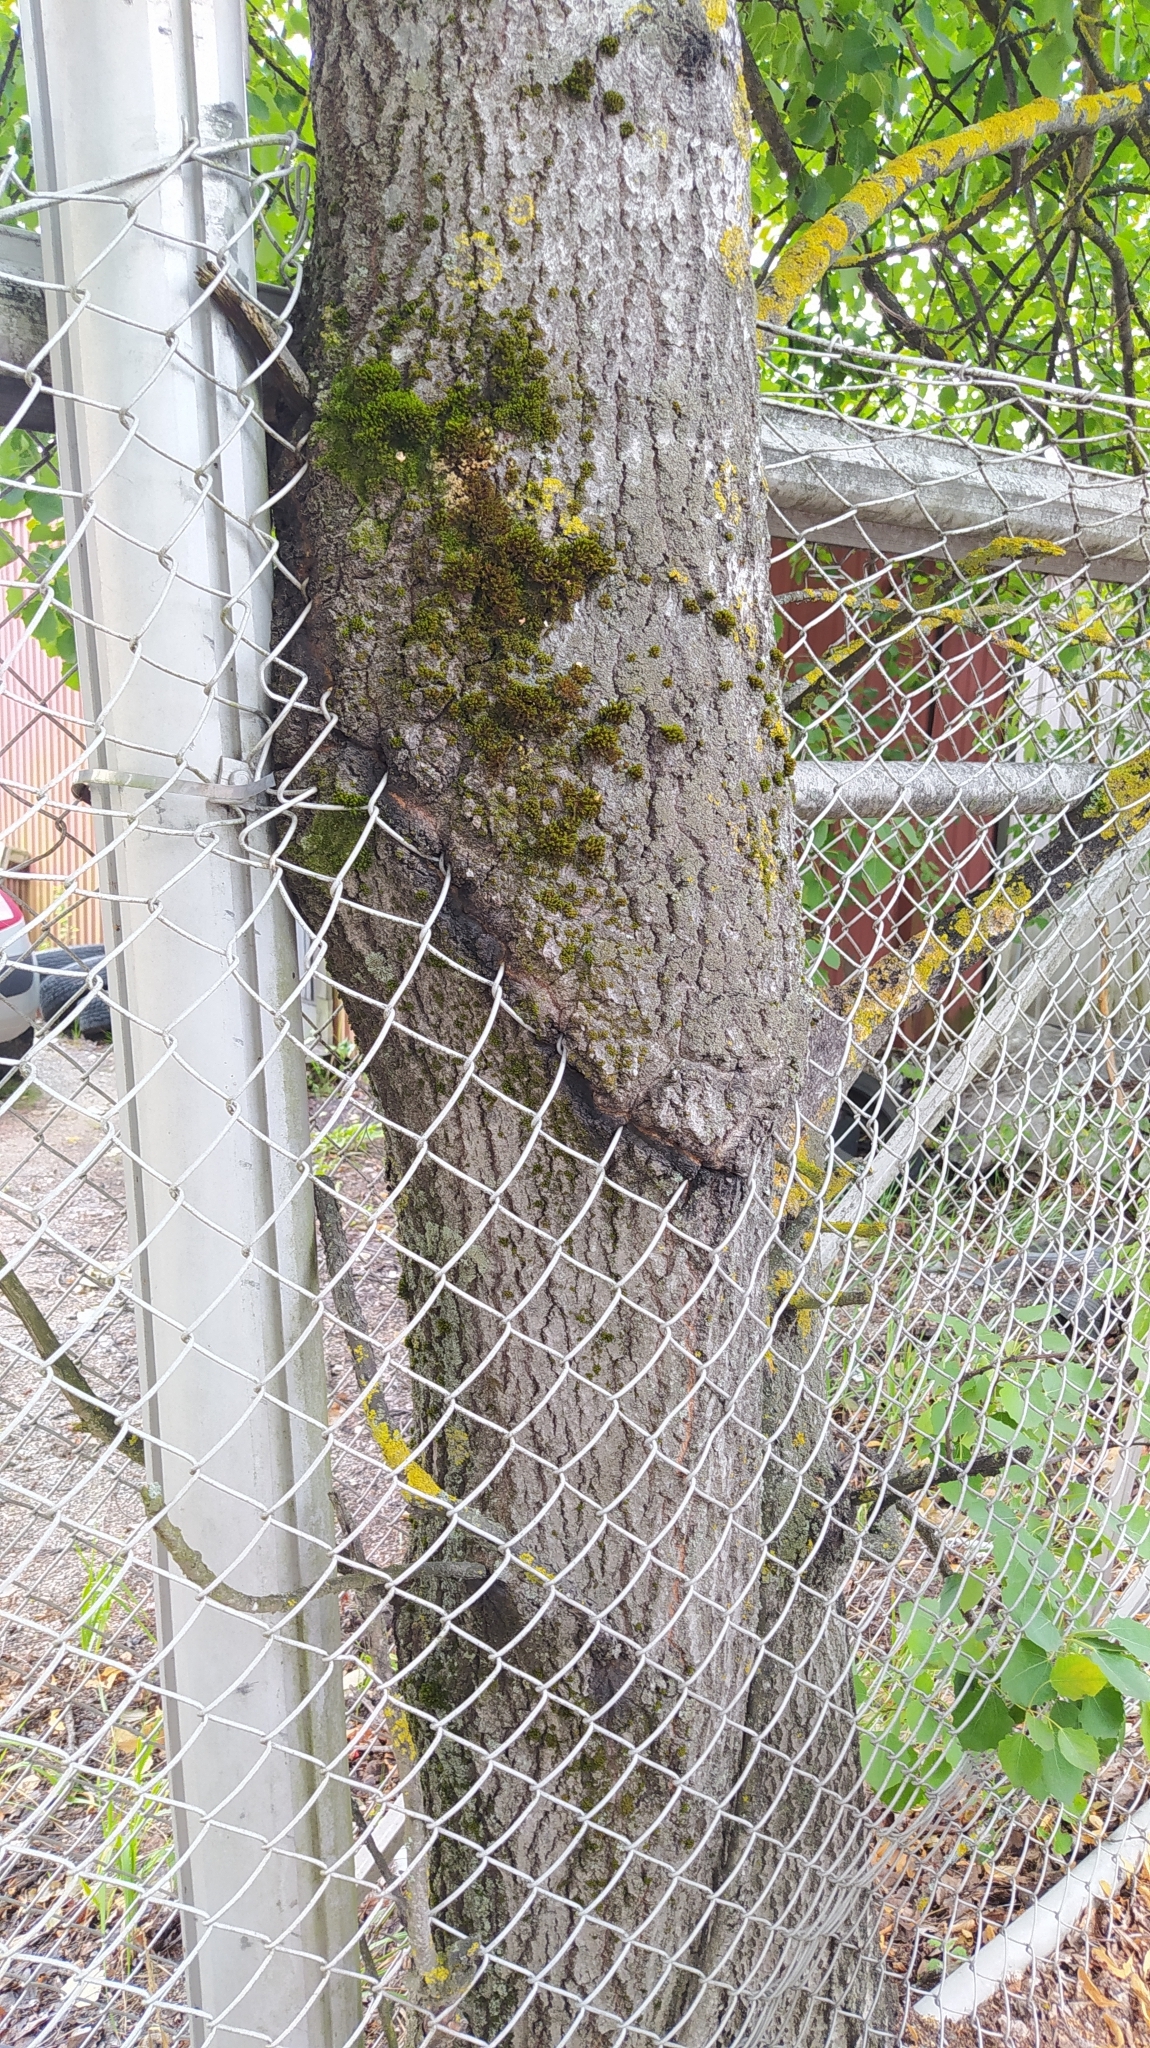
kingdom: Plantae
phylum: Tracheophyta
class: Magnoliopsida
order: Malpighiales
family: Salicaceae
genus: Populus
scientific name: Populus tremula
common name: European aspen
